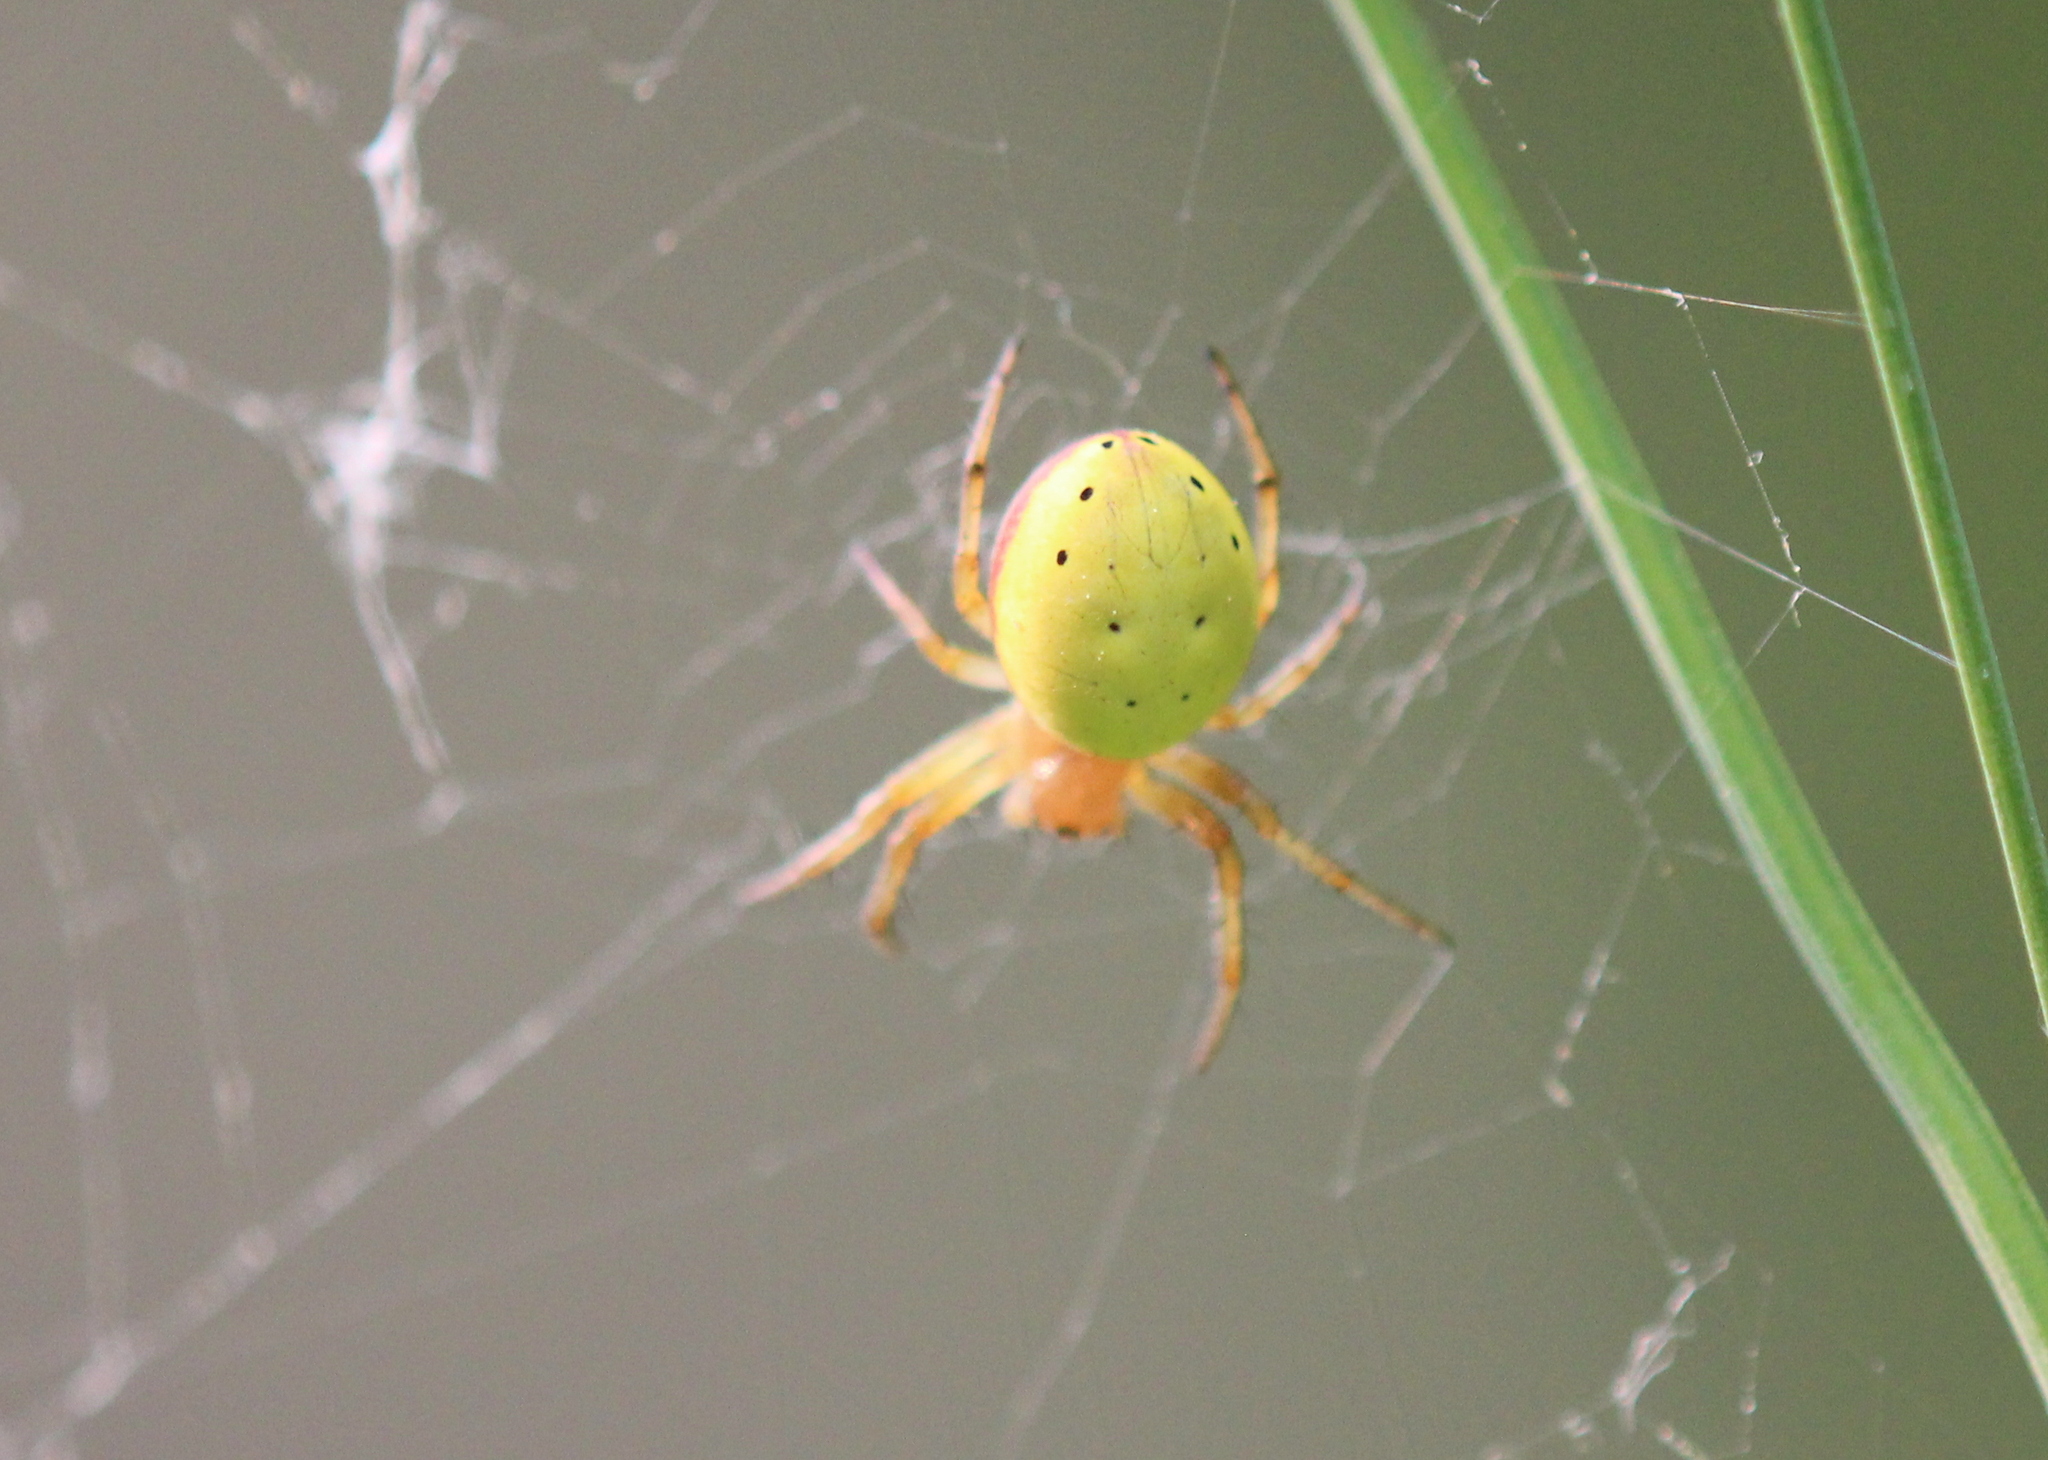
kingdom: Animalia
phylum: Arthropoda
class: Arachnida
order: Araneae
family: Araneidae
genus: Araniella
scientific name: Araniella displicata
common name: Sixspotted orb weaver
